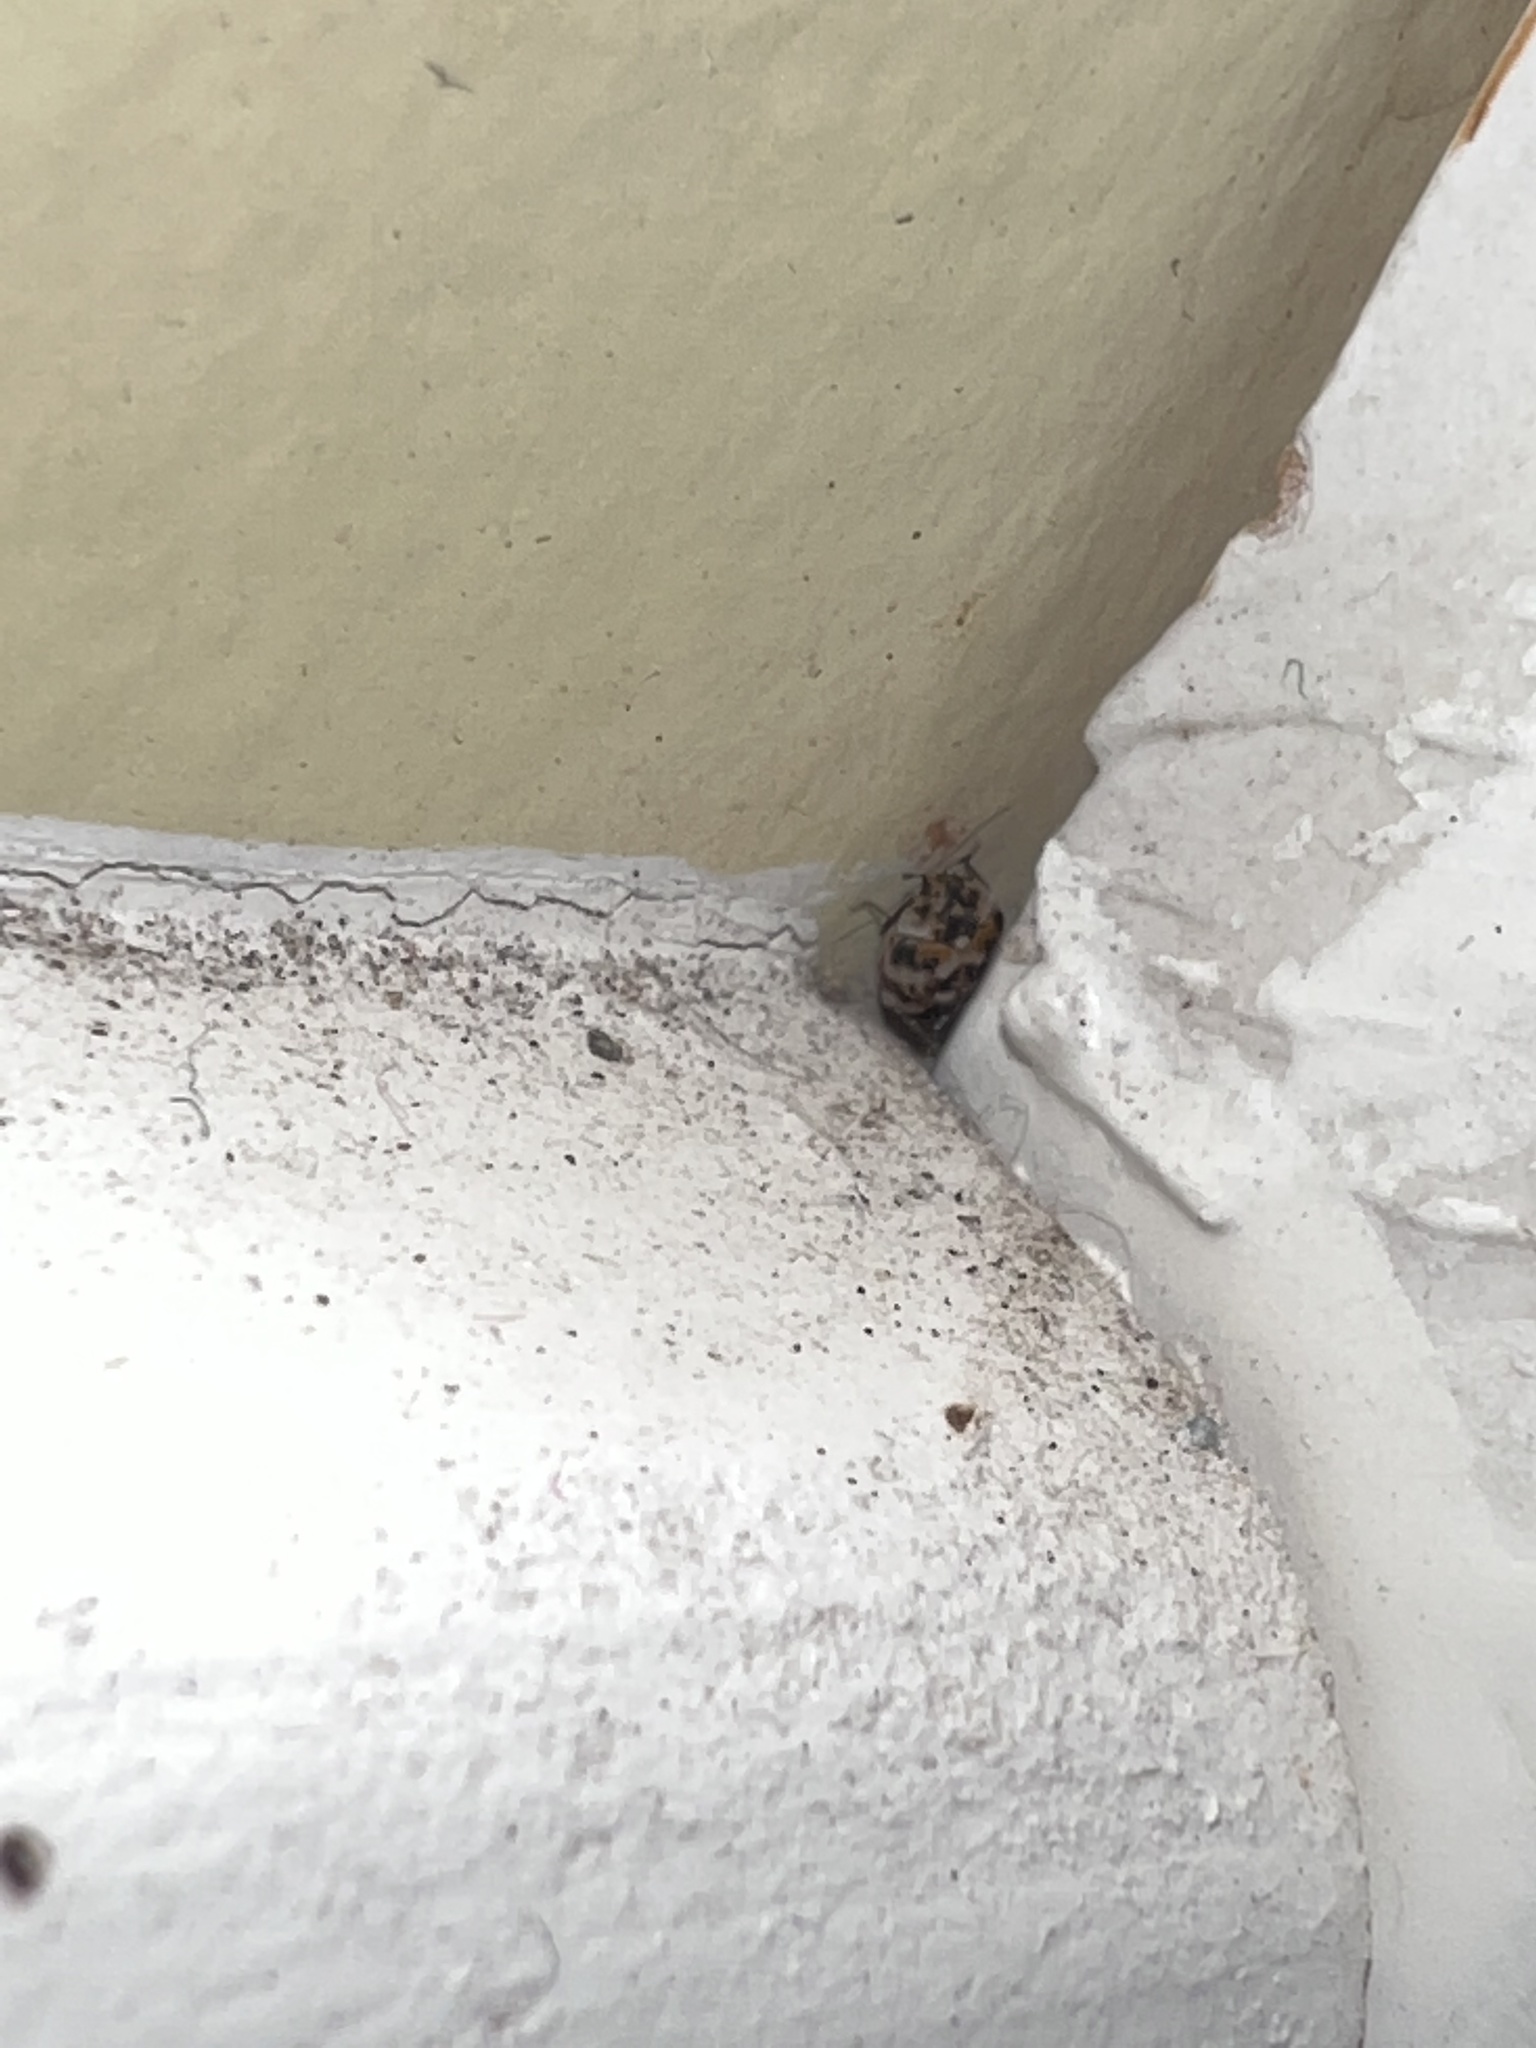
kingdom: Animalia
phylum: Arthropoda
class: Insecta
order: Coleoptera
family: Dermestidae
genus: Anthrenus
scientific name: Anthrenus verbasci
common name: Varied carpet beetle
